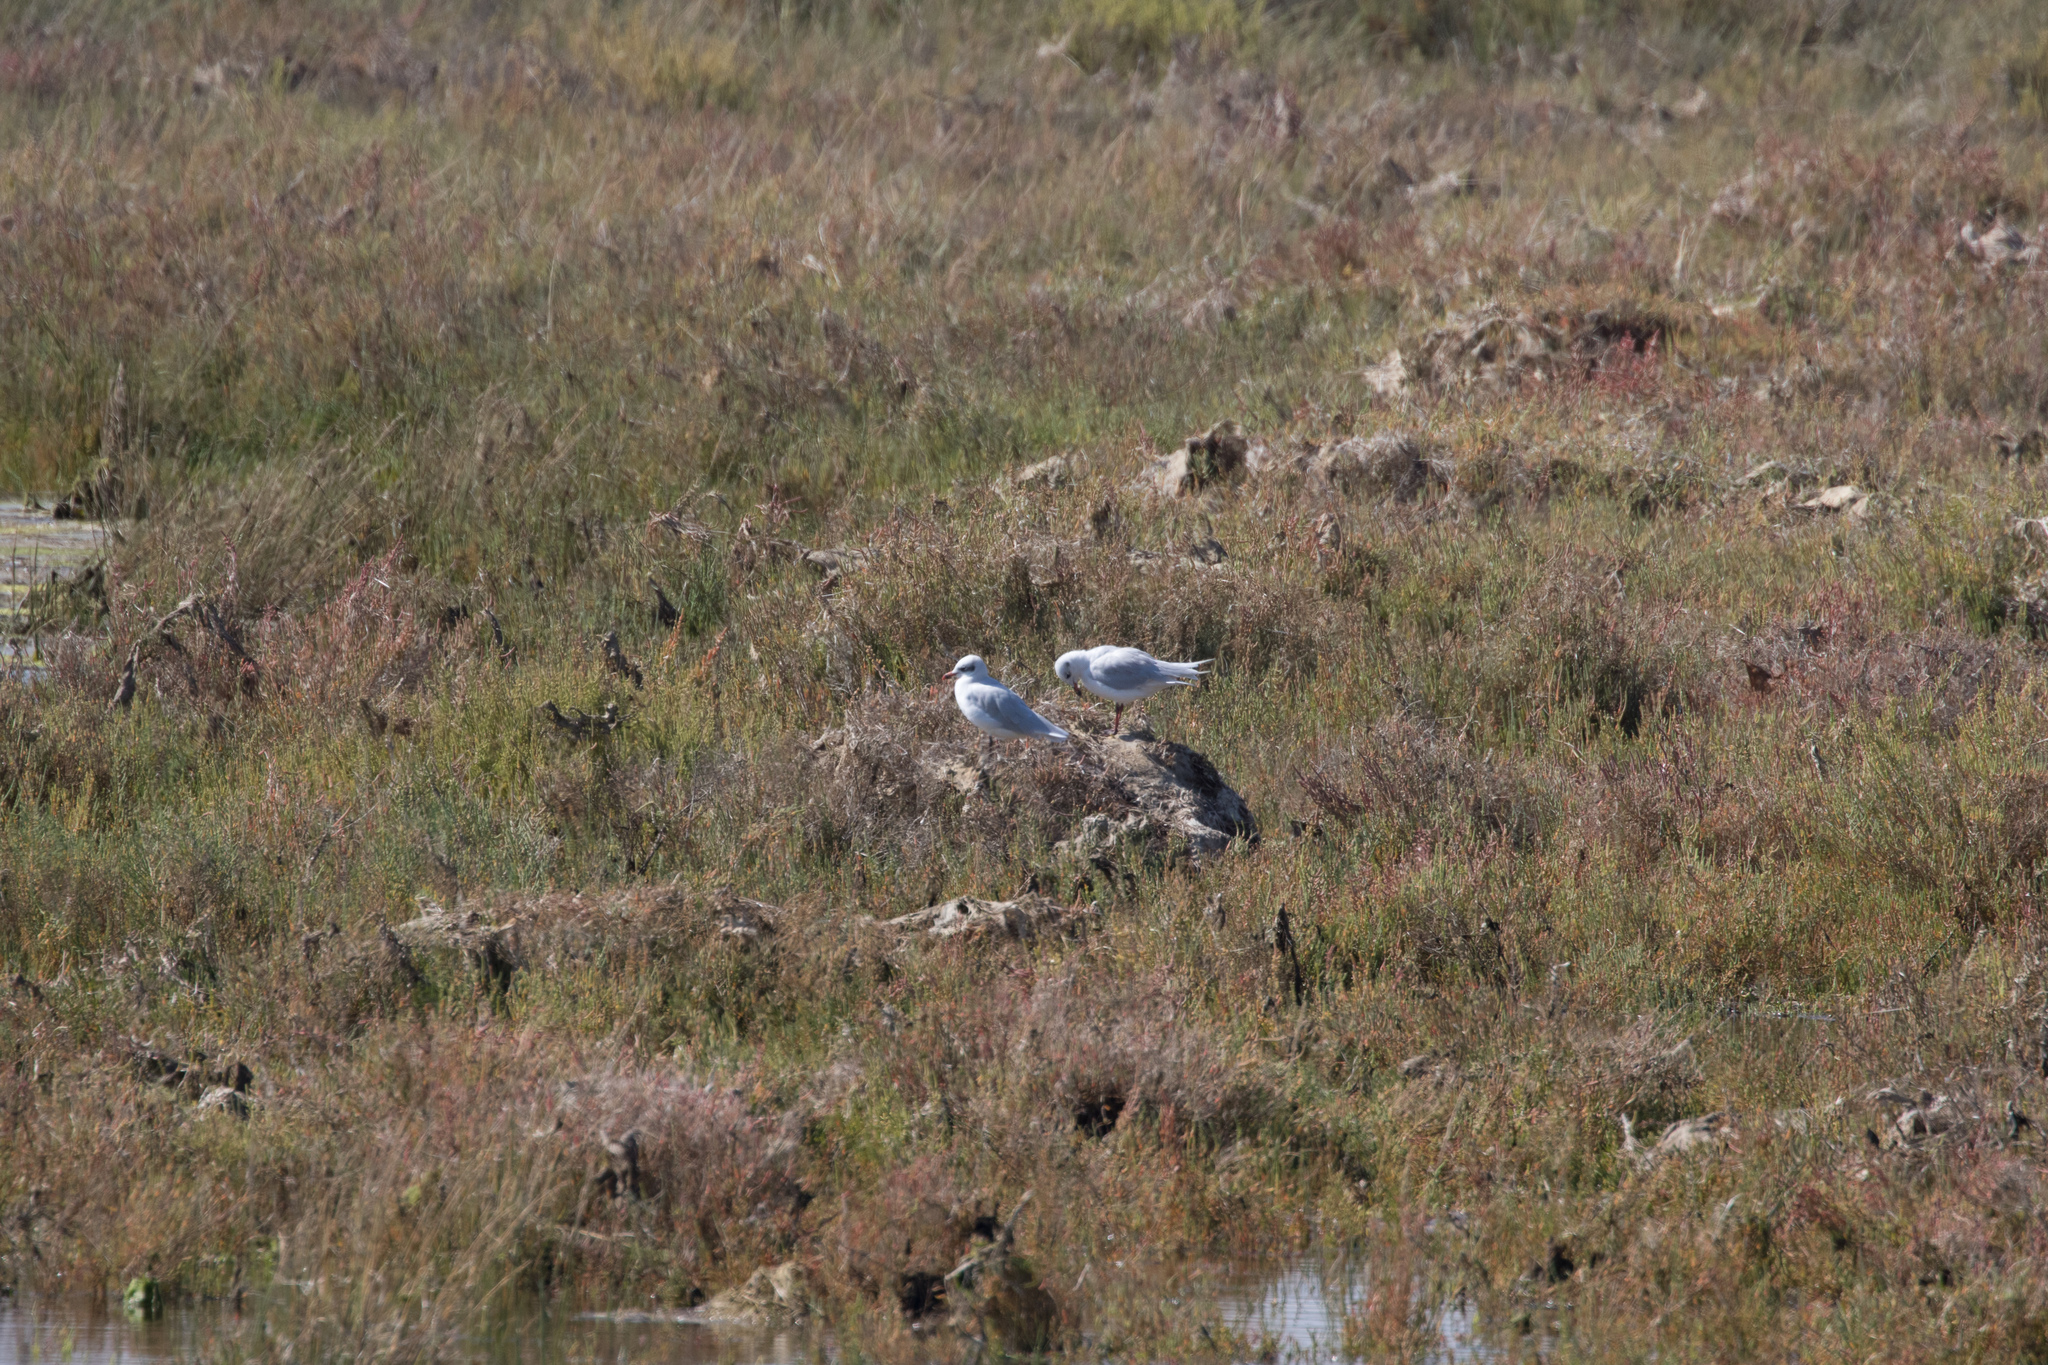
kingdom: Animalia
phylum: Chordata
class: Aves
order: Charadriiformes
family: Laridae
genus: Ichthyaetus
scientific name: Ichthyaetus melanocephalus
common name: Mediterranean gull
